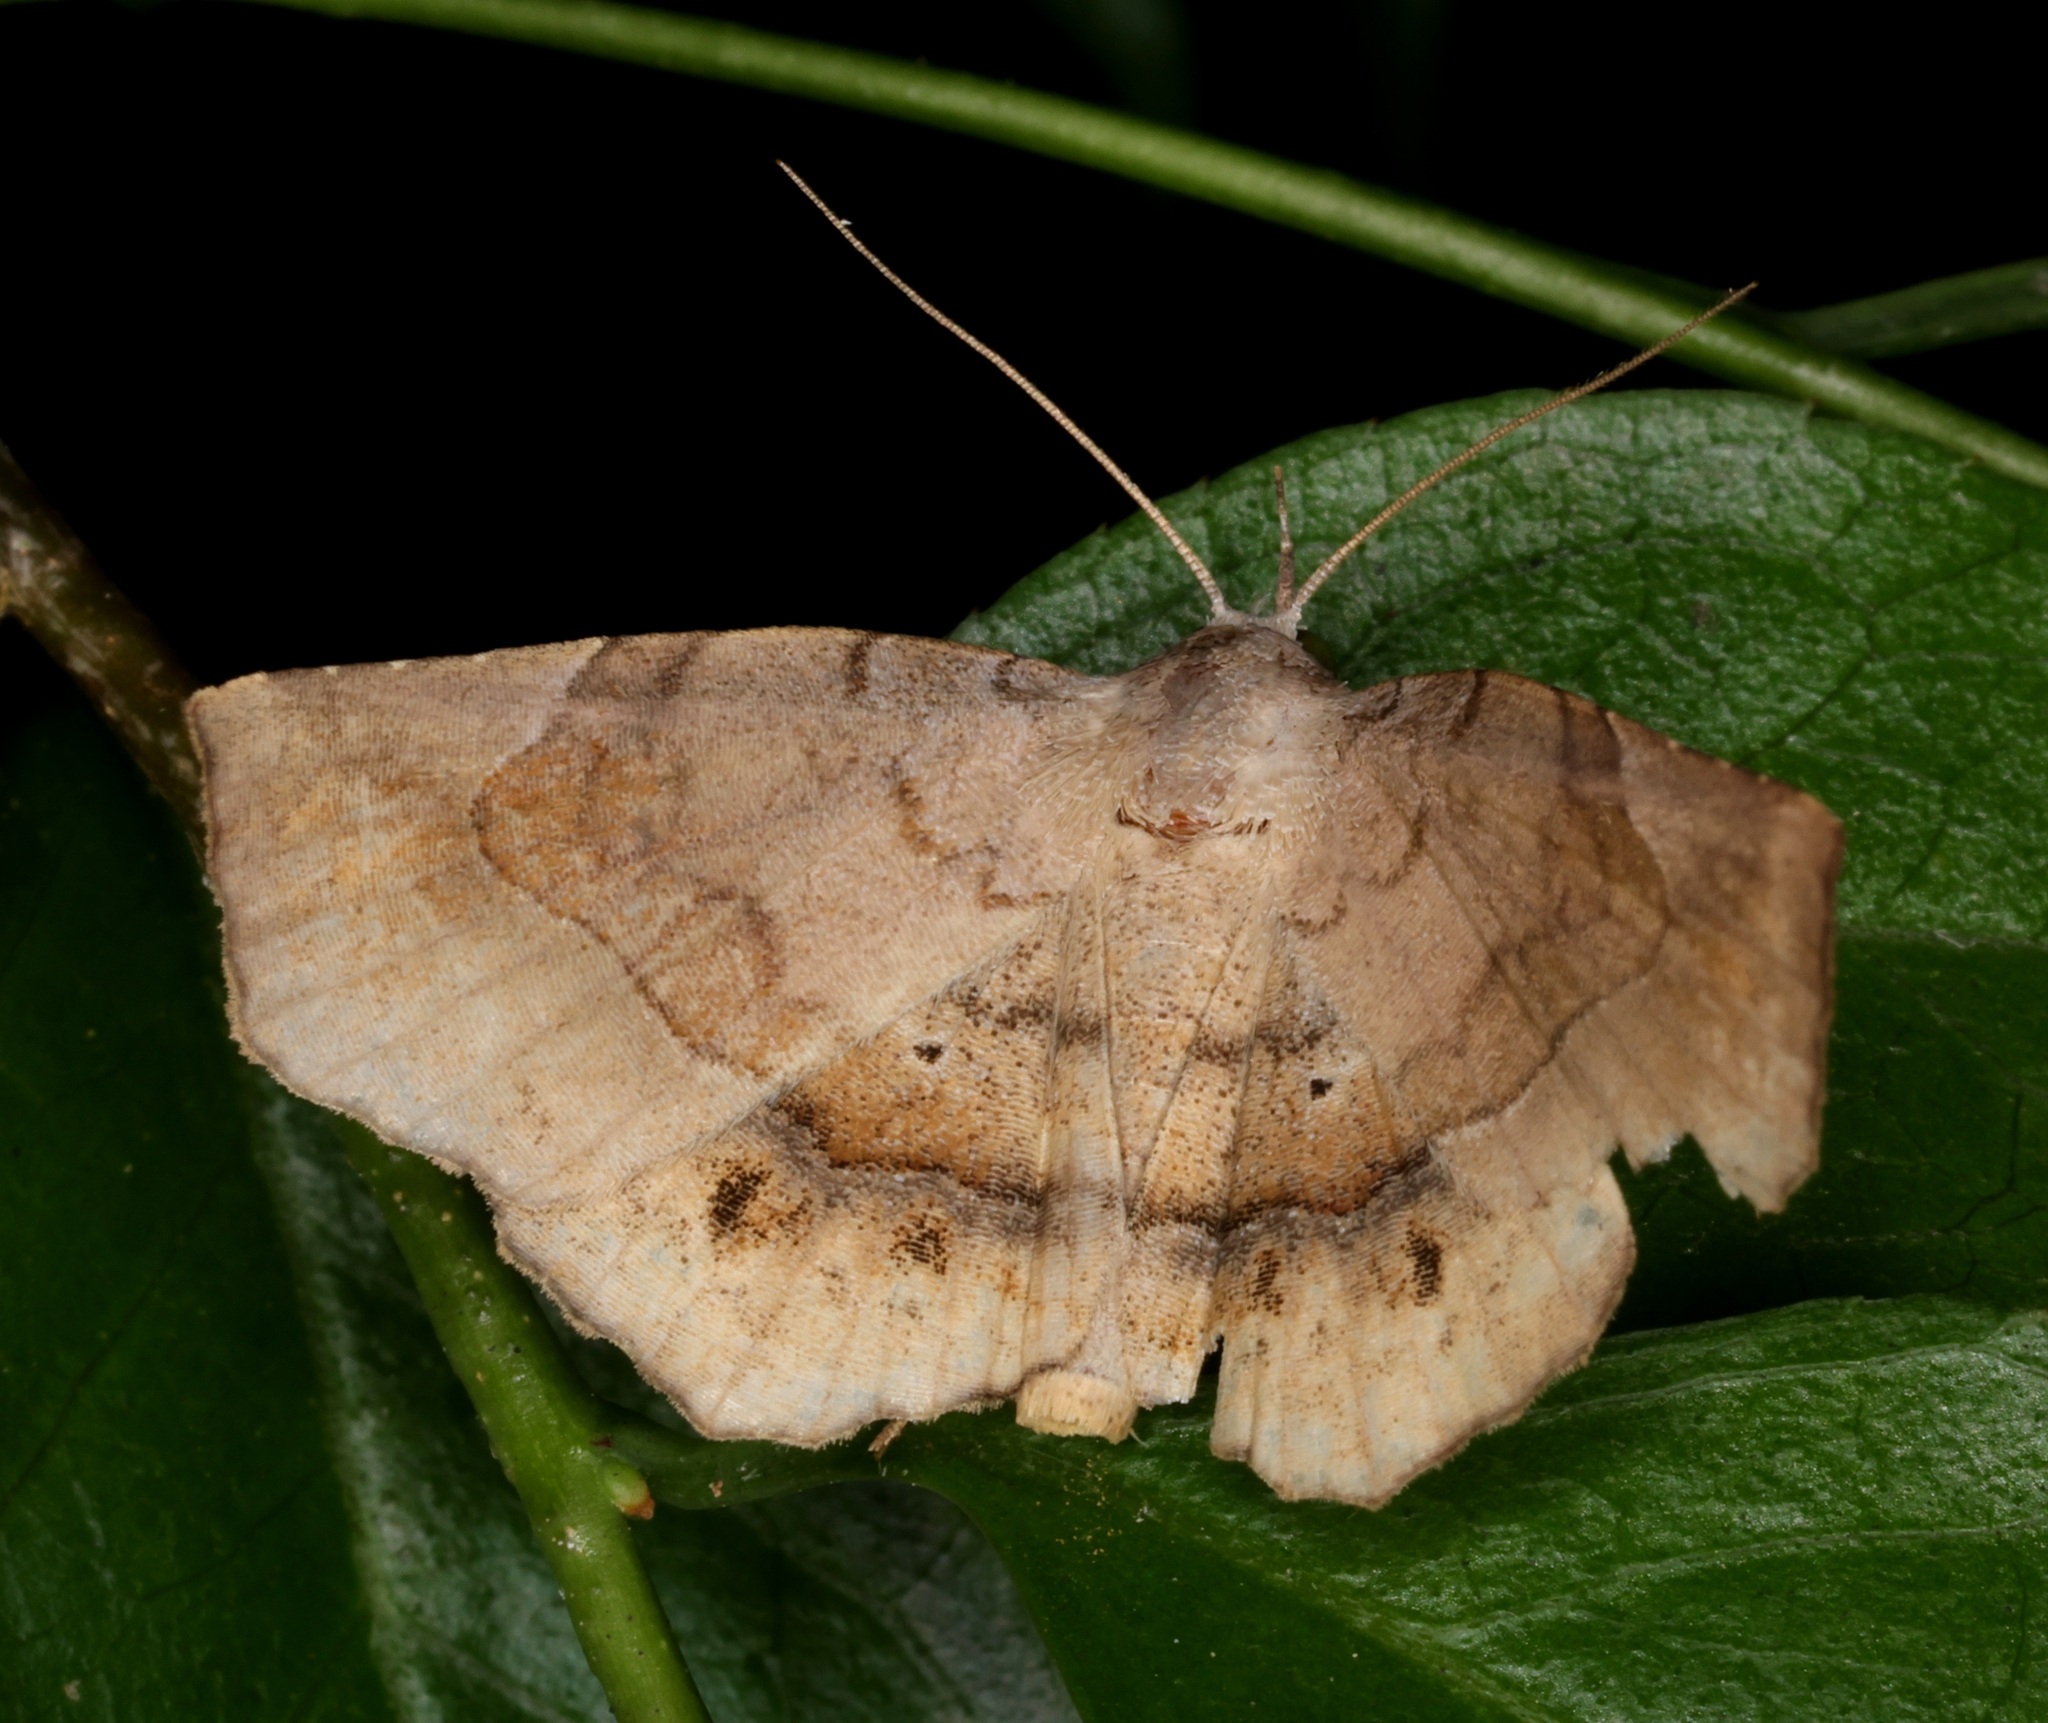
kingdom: Animalia
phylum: Arthropoda
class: Insecta
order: Lepidoptera
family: Erebidae
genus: Pangrapta
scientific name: Pangrapta plumbilineata
